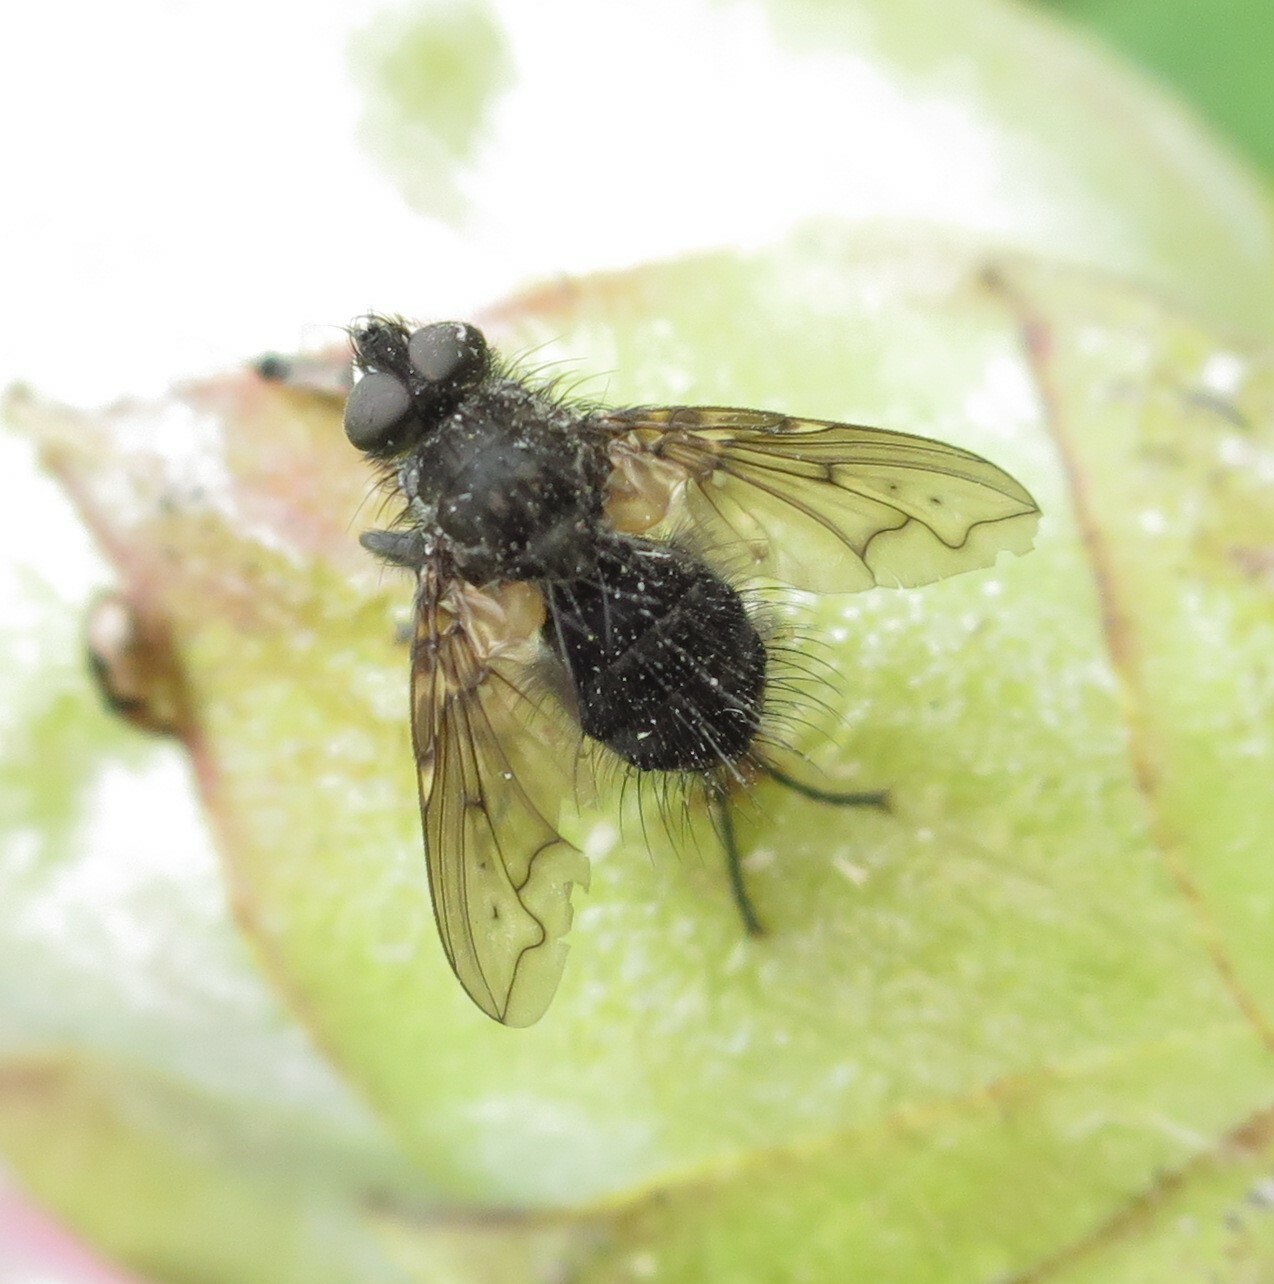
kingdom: Animalia
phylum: Arthropoda
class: Insecta
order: Diptera
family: Tachinidae
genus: Mallochomacquartia
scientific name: Mallochomacquartia vexata
